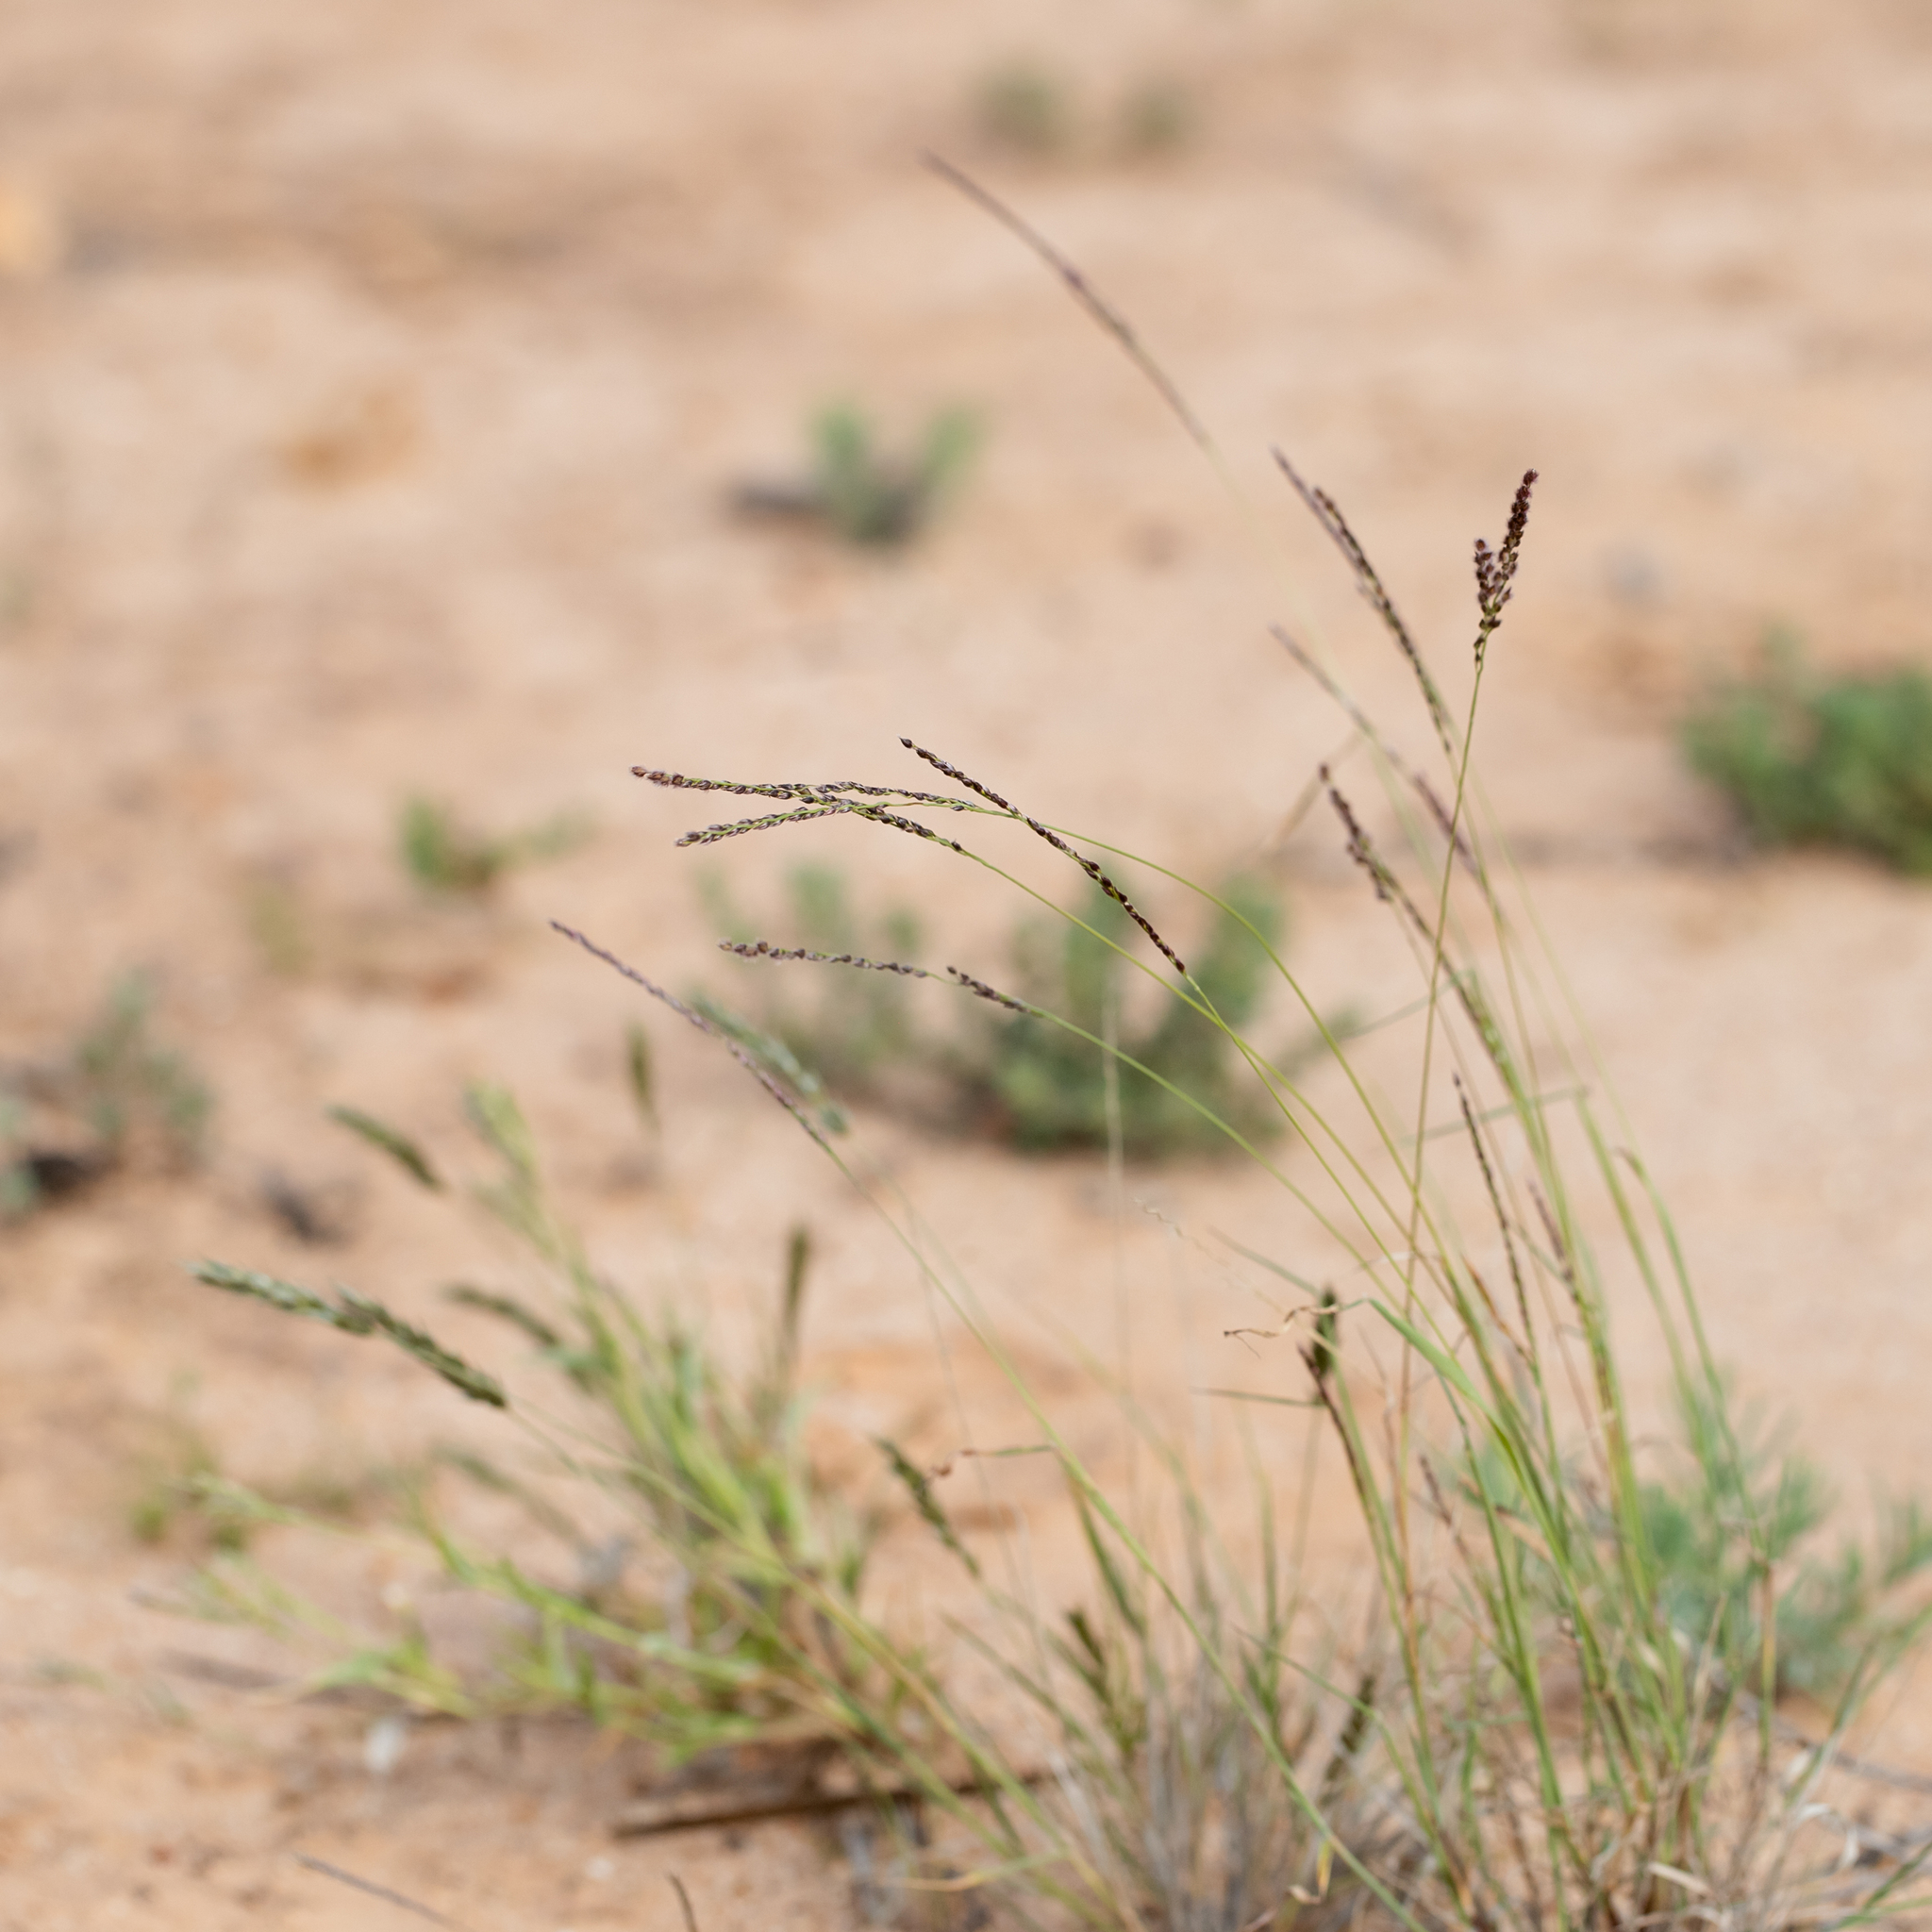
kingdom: Plantae
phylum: Tracheophyta
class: Liliopsida
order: Poales
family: Poaceae
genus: Digitaria
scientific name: Digitaria brownii
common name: Cotton grass
